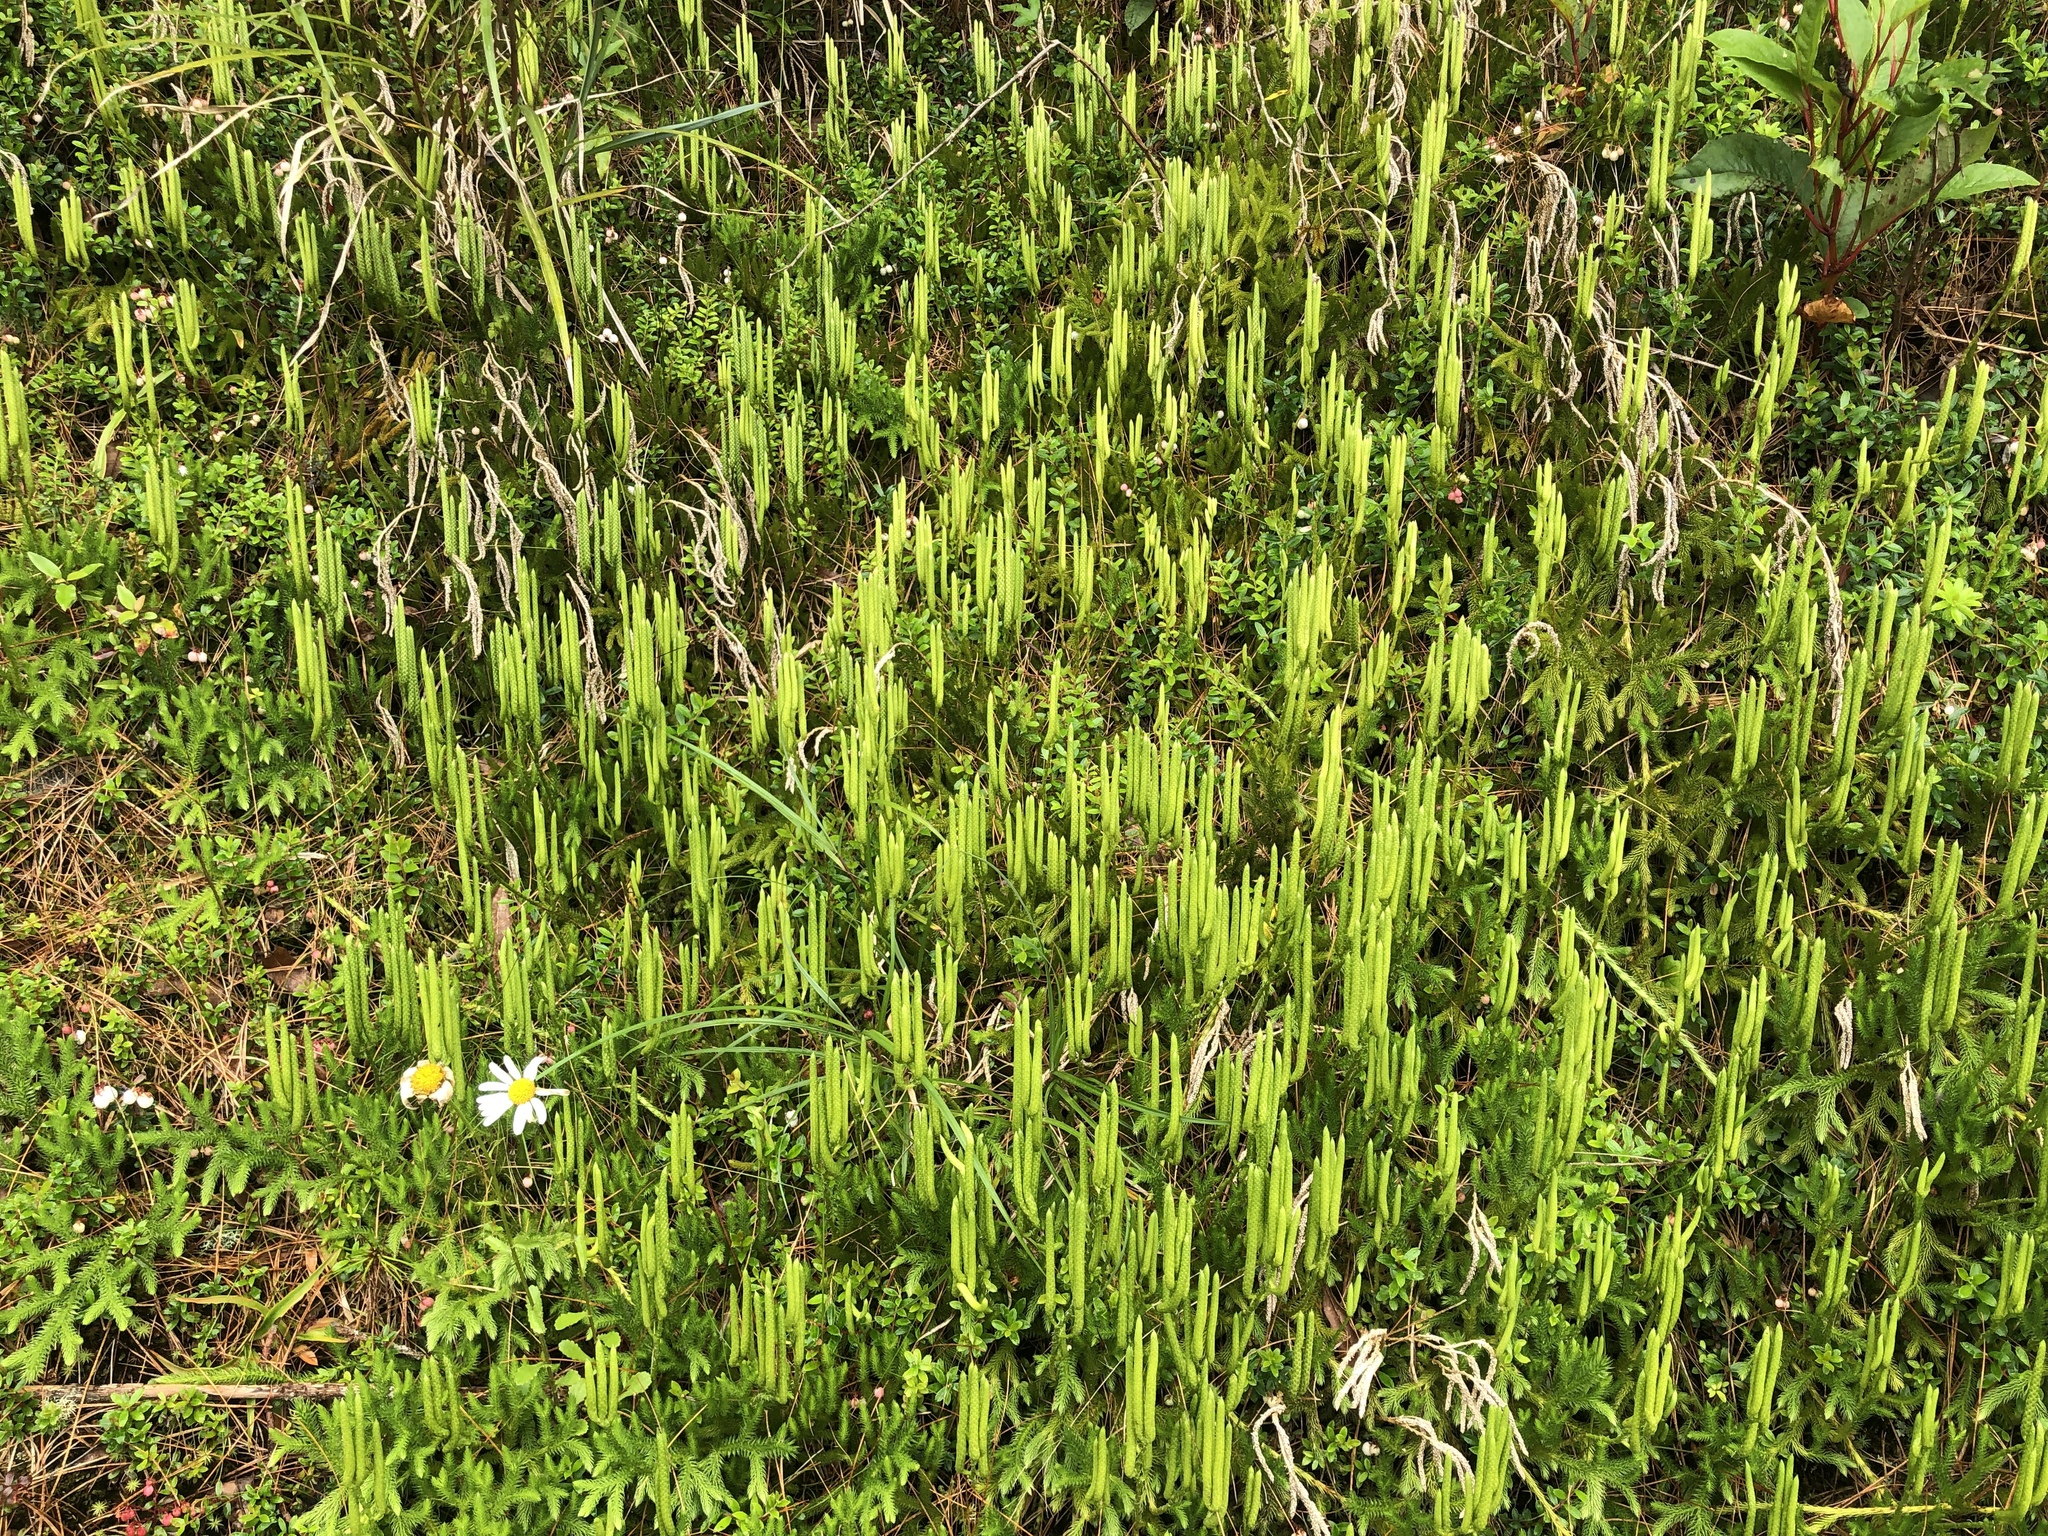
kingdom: Plantae
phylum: Tracheophyta
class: Lycopodiopsida
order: Lycopodiales
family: Lycopodiaceae
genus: Lycopodium
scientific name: Lycopodium clavatum
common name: Stag's-horn clubmoss
